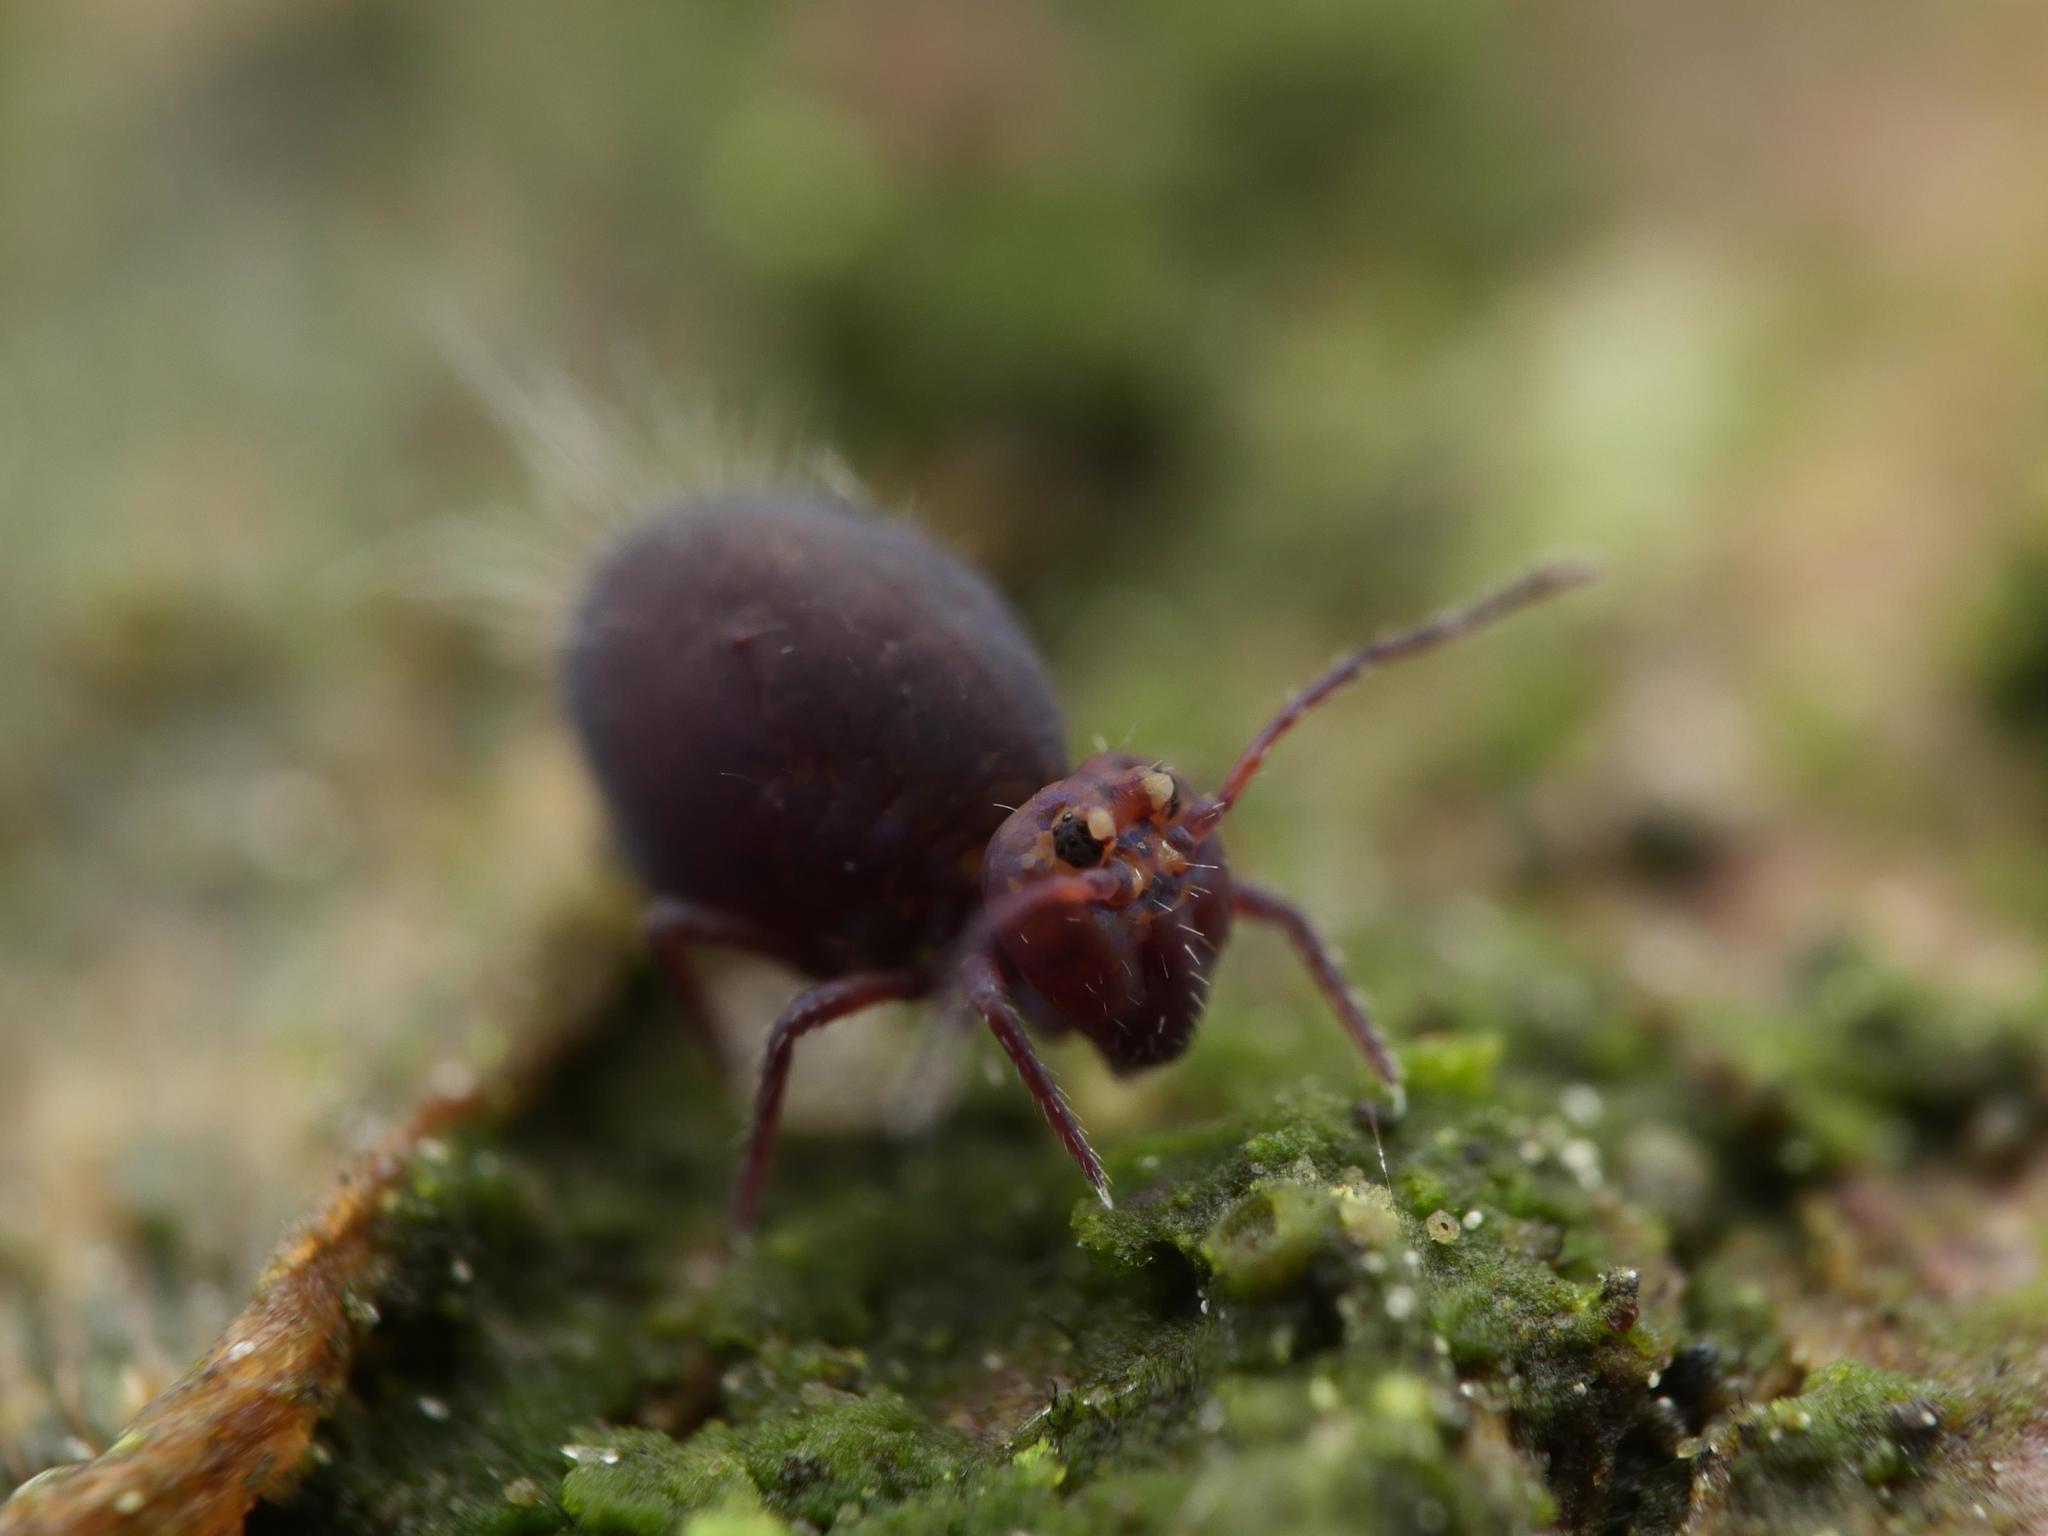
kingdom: Animalia
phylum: Arthropoda
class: Collembola
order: Symphypleona
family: Dicyrtomidae
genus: Dicyrtoma
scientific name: Dicyrtoma fusca
